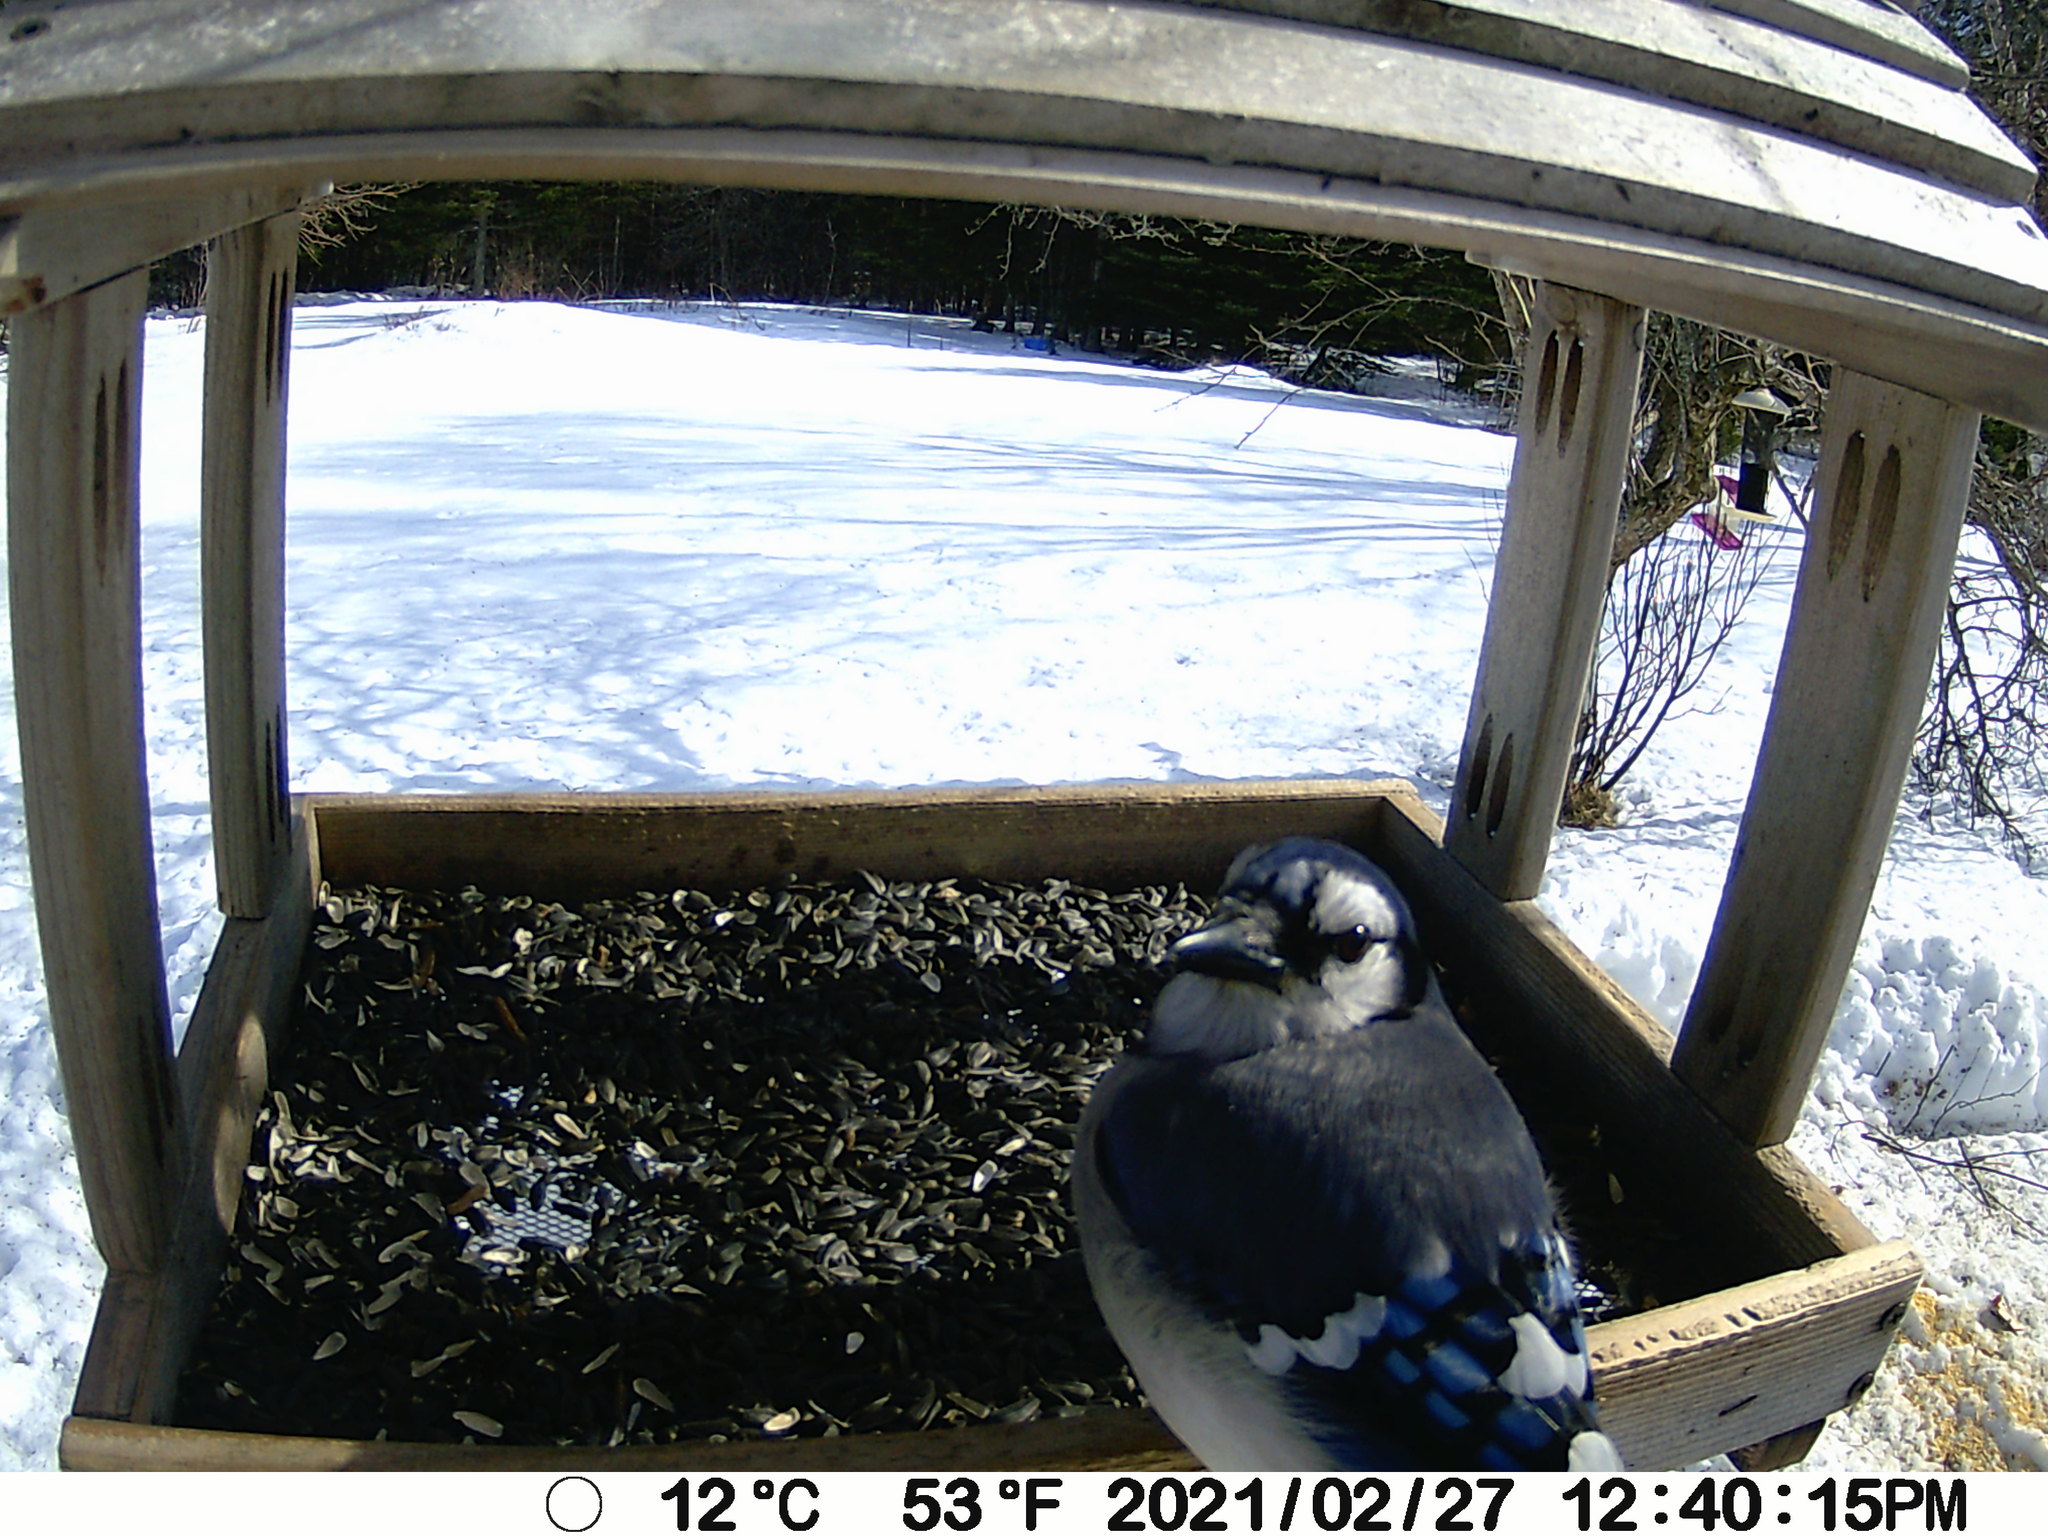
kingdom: Animalia
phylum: Chordata
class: Aves
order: Passeriformes
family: Corvidae
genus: Cyanocitta
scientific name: Cyanocitta cristata
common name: Blue jay
